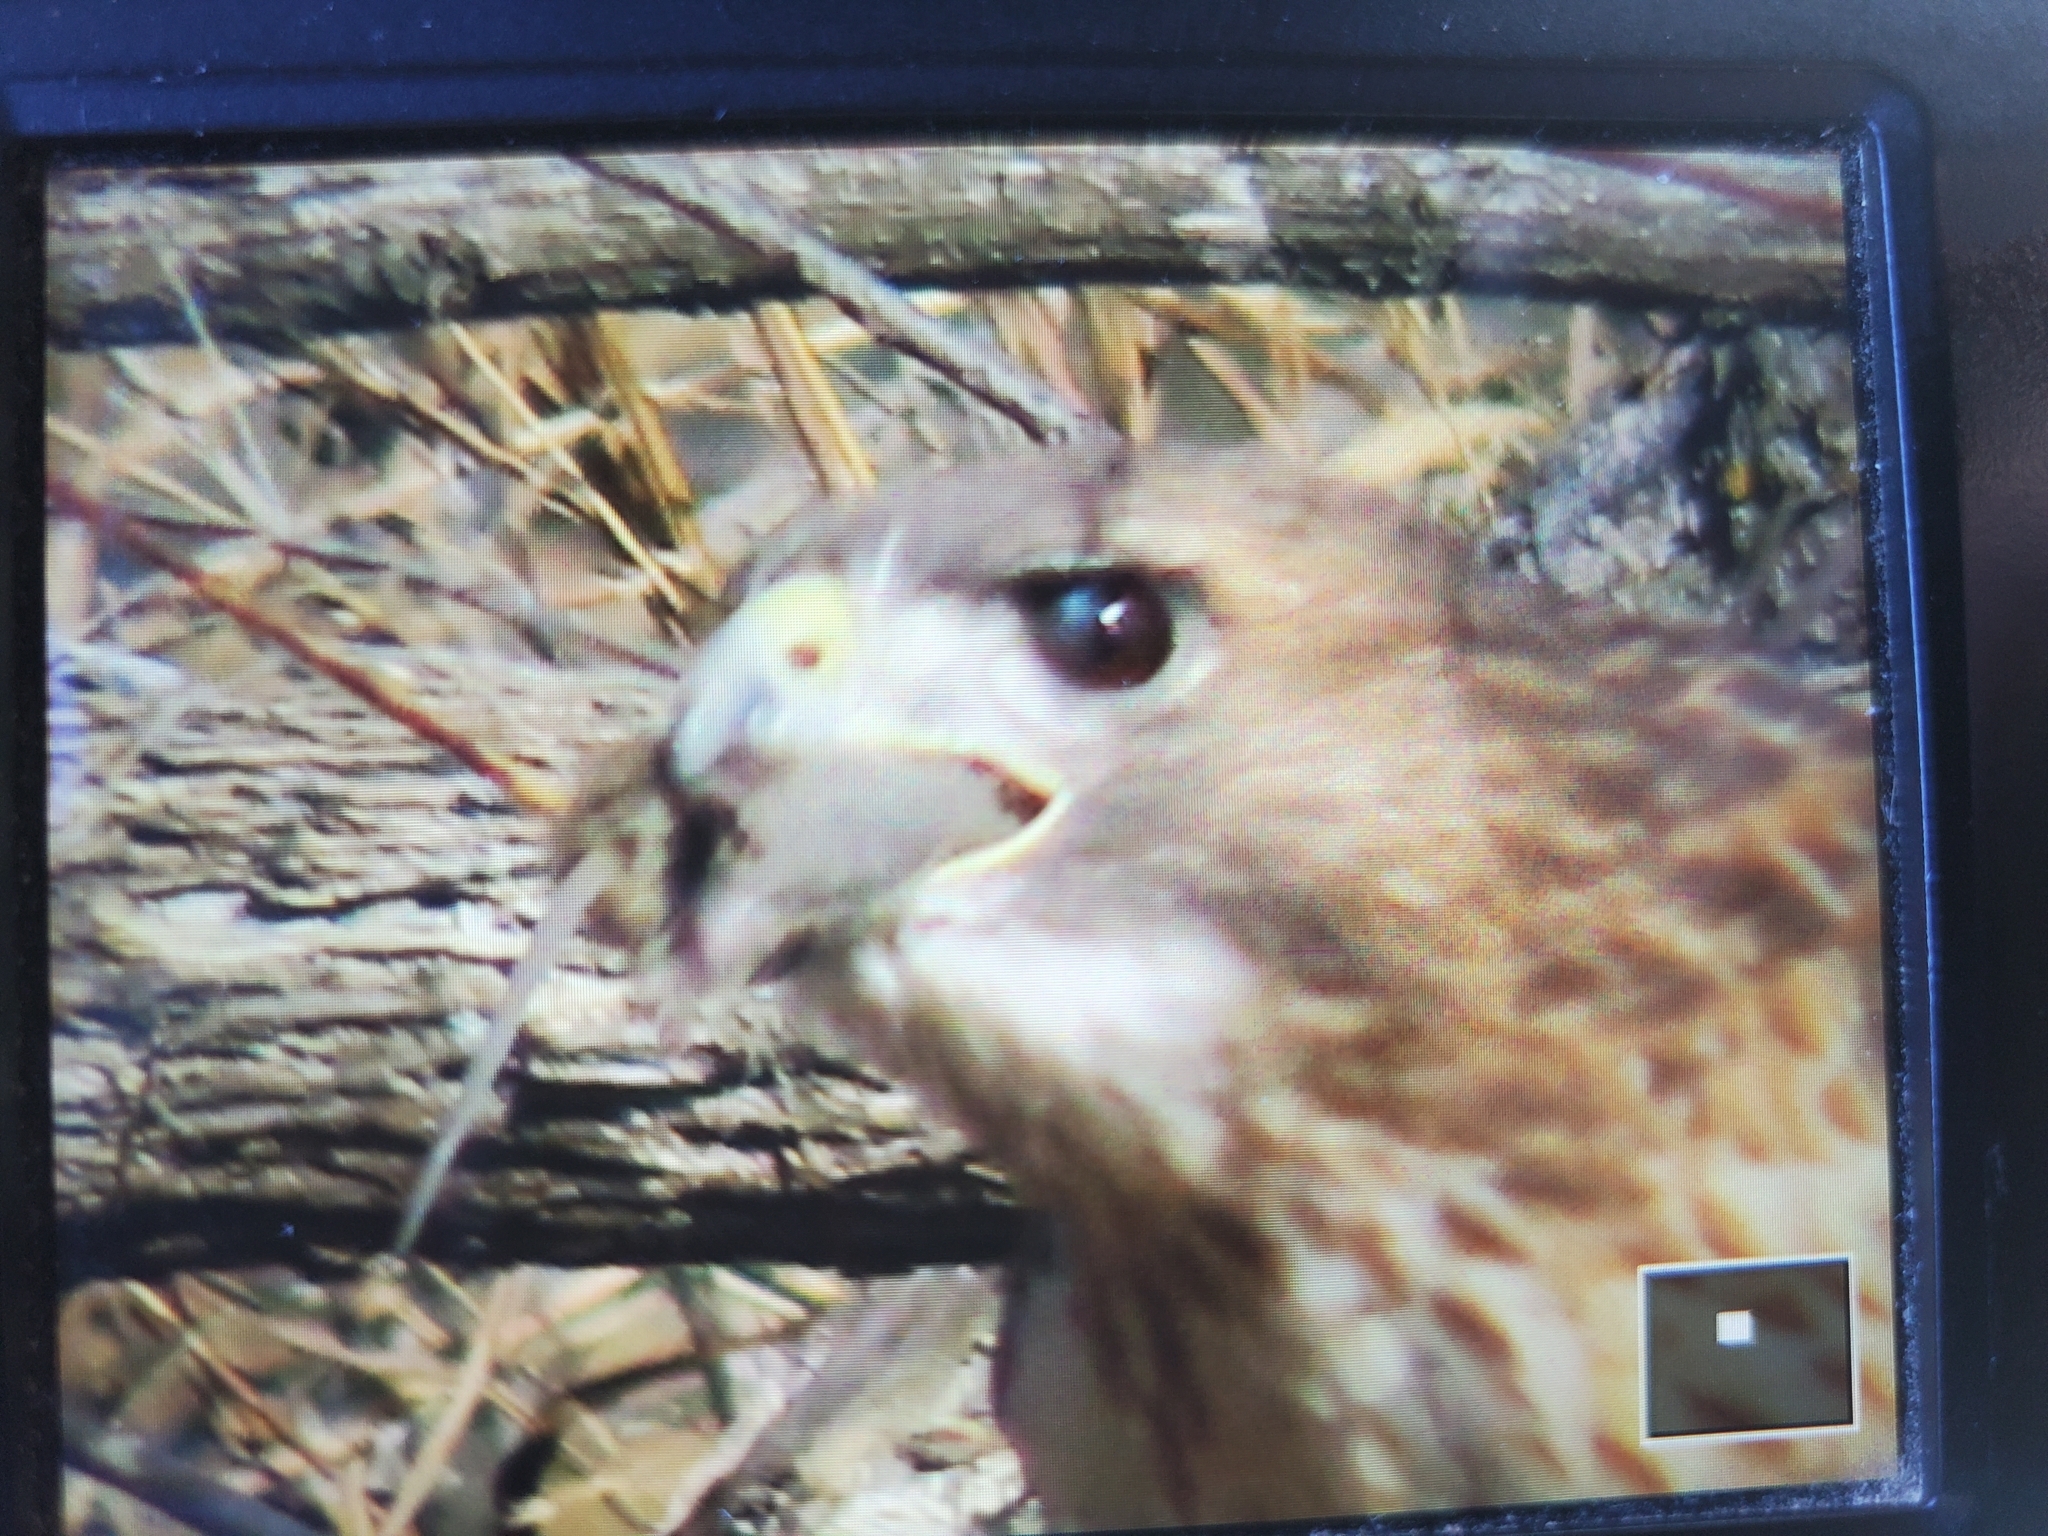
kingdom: Animalia
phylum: Chordata
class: Aves
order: Accipitriformes
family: Accipitridae
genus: Buteo
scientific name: Buteo jamaicensis
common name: Red-tailed hawk
